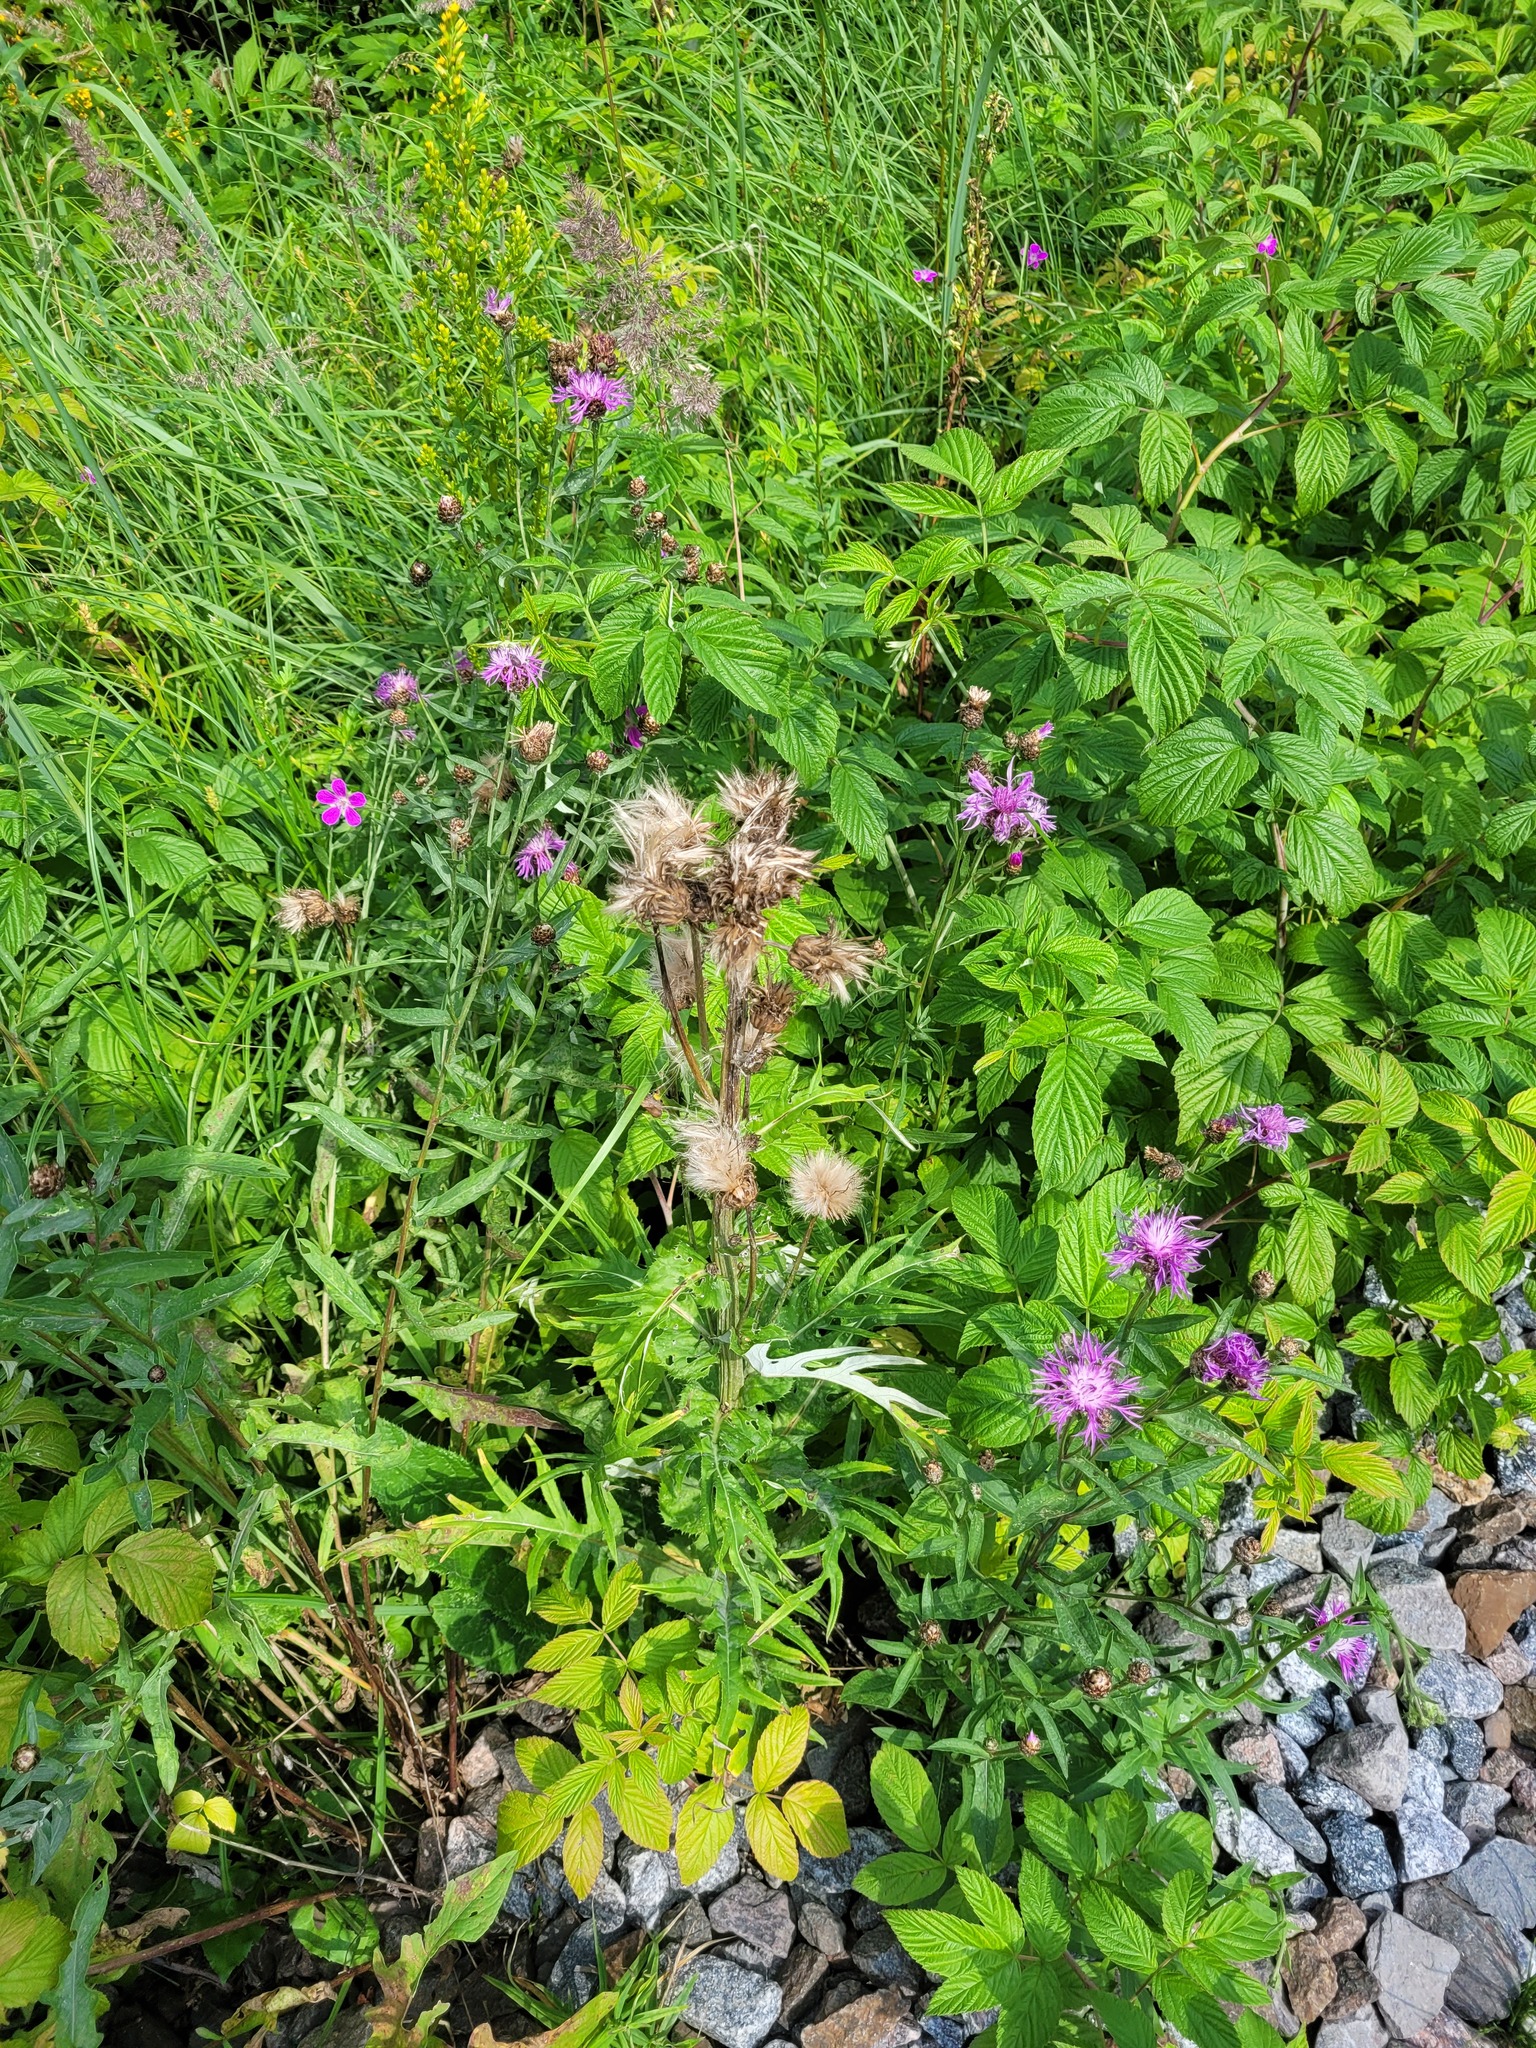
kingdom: Plantae
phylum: Tracheophyta
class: Magnoliopsida
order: Asterales
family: Asteraceae
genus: Cirsium
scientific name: Cirsium heterophyllum
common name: Melancholy thistle
